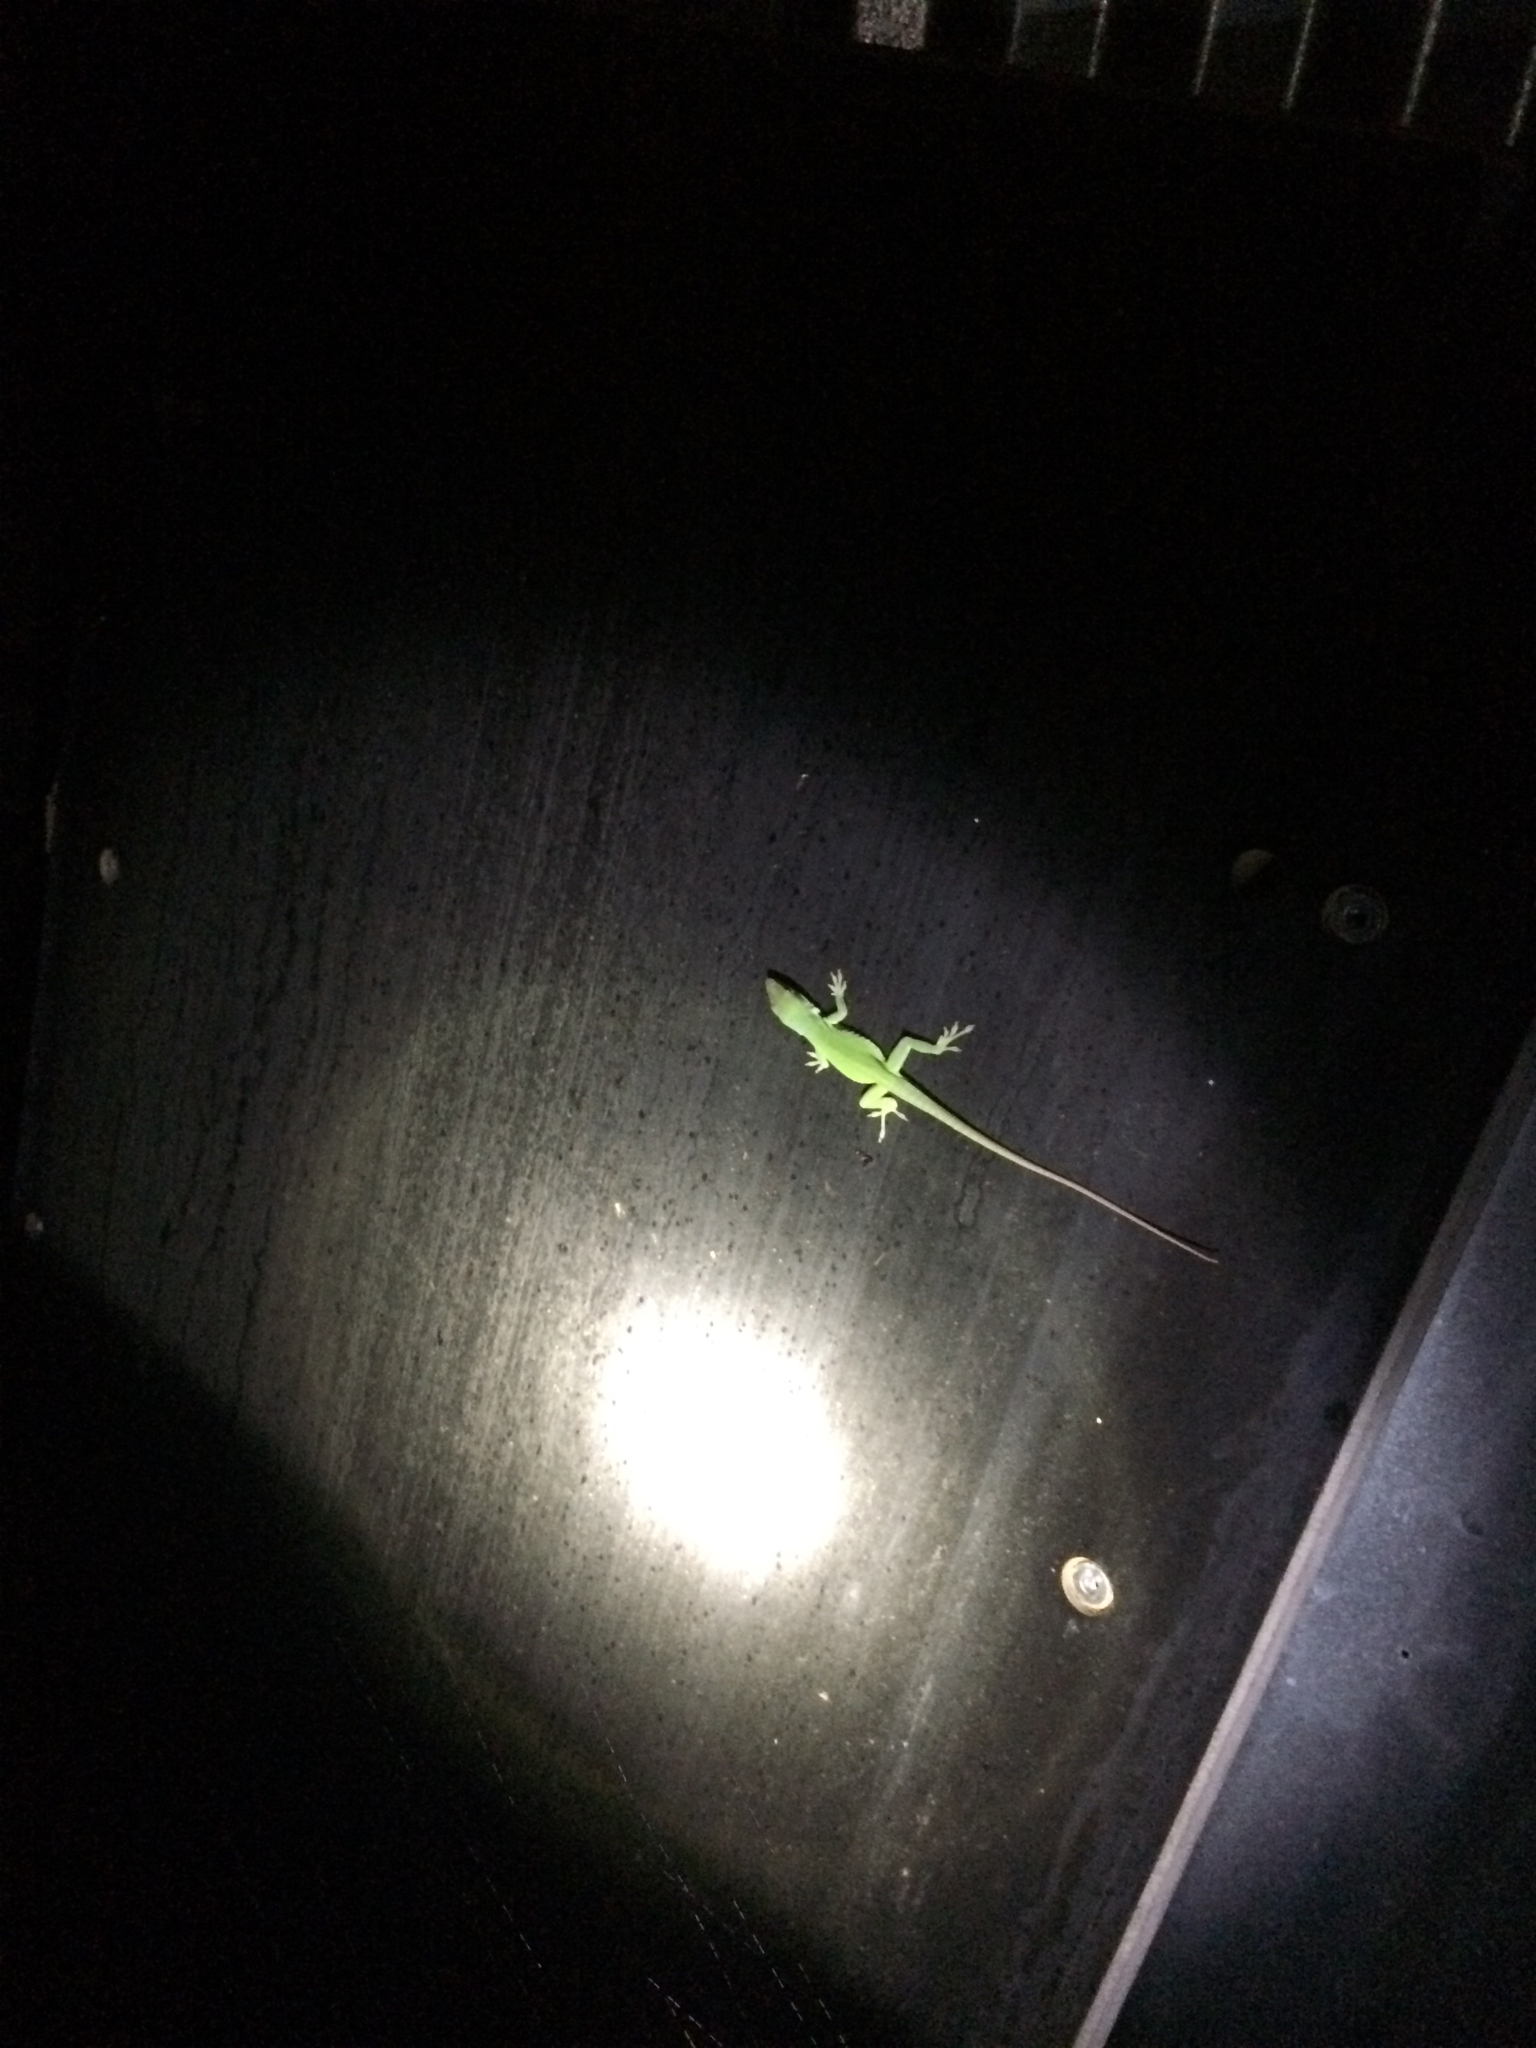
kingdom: Animalia
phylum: Chordata
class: Squamata
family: Dactyloidae
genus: Anolis
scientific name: Anolis carolinensis
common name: Green anole
